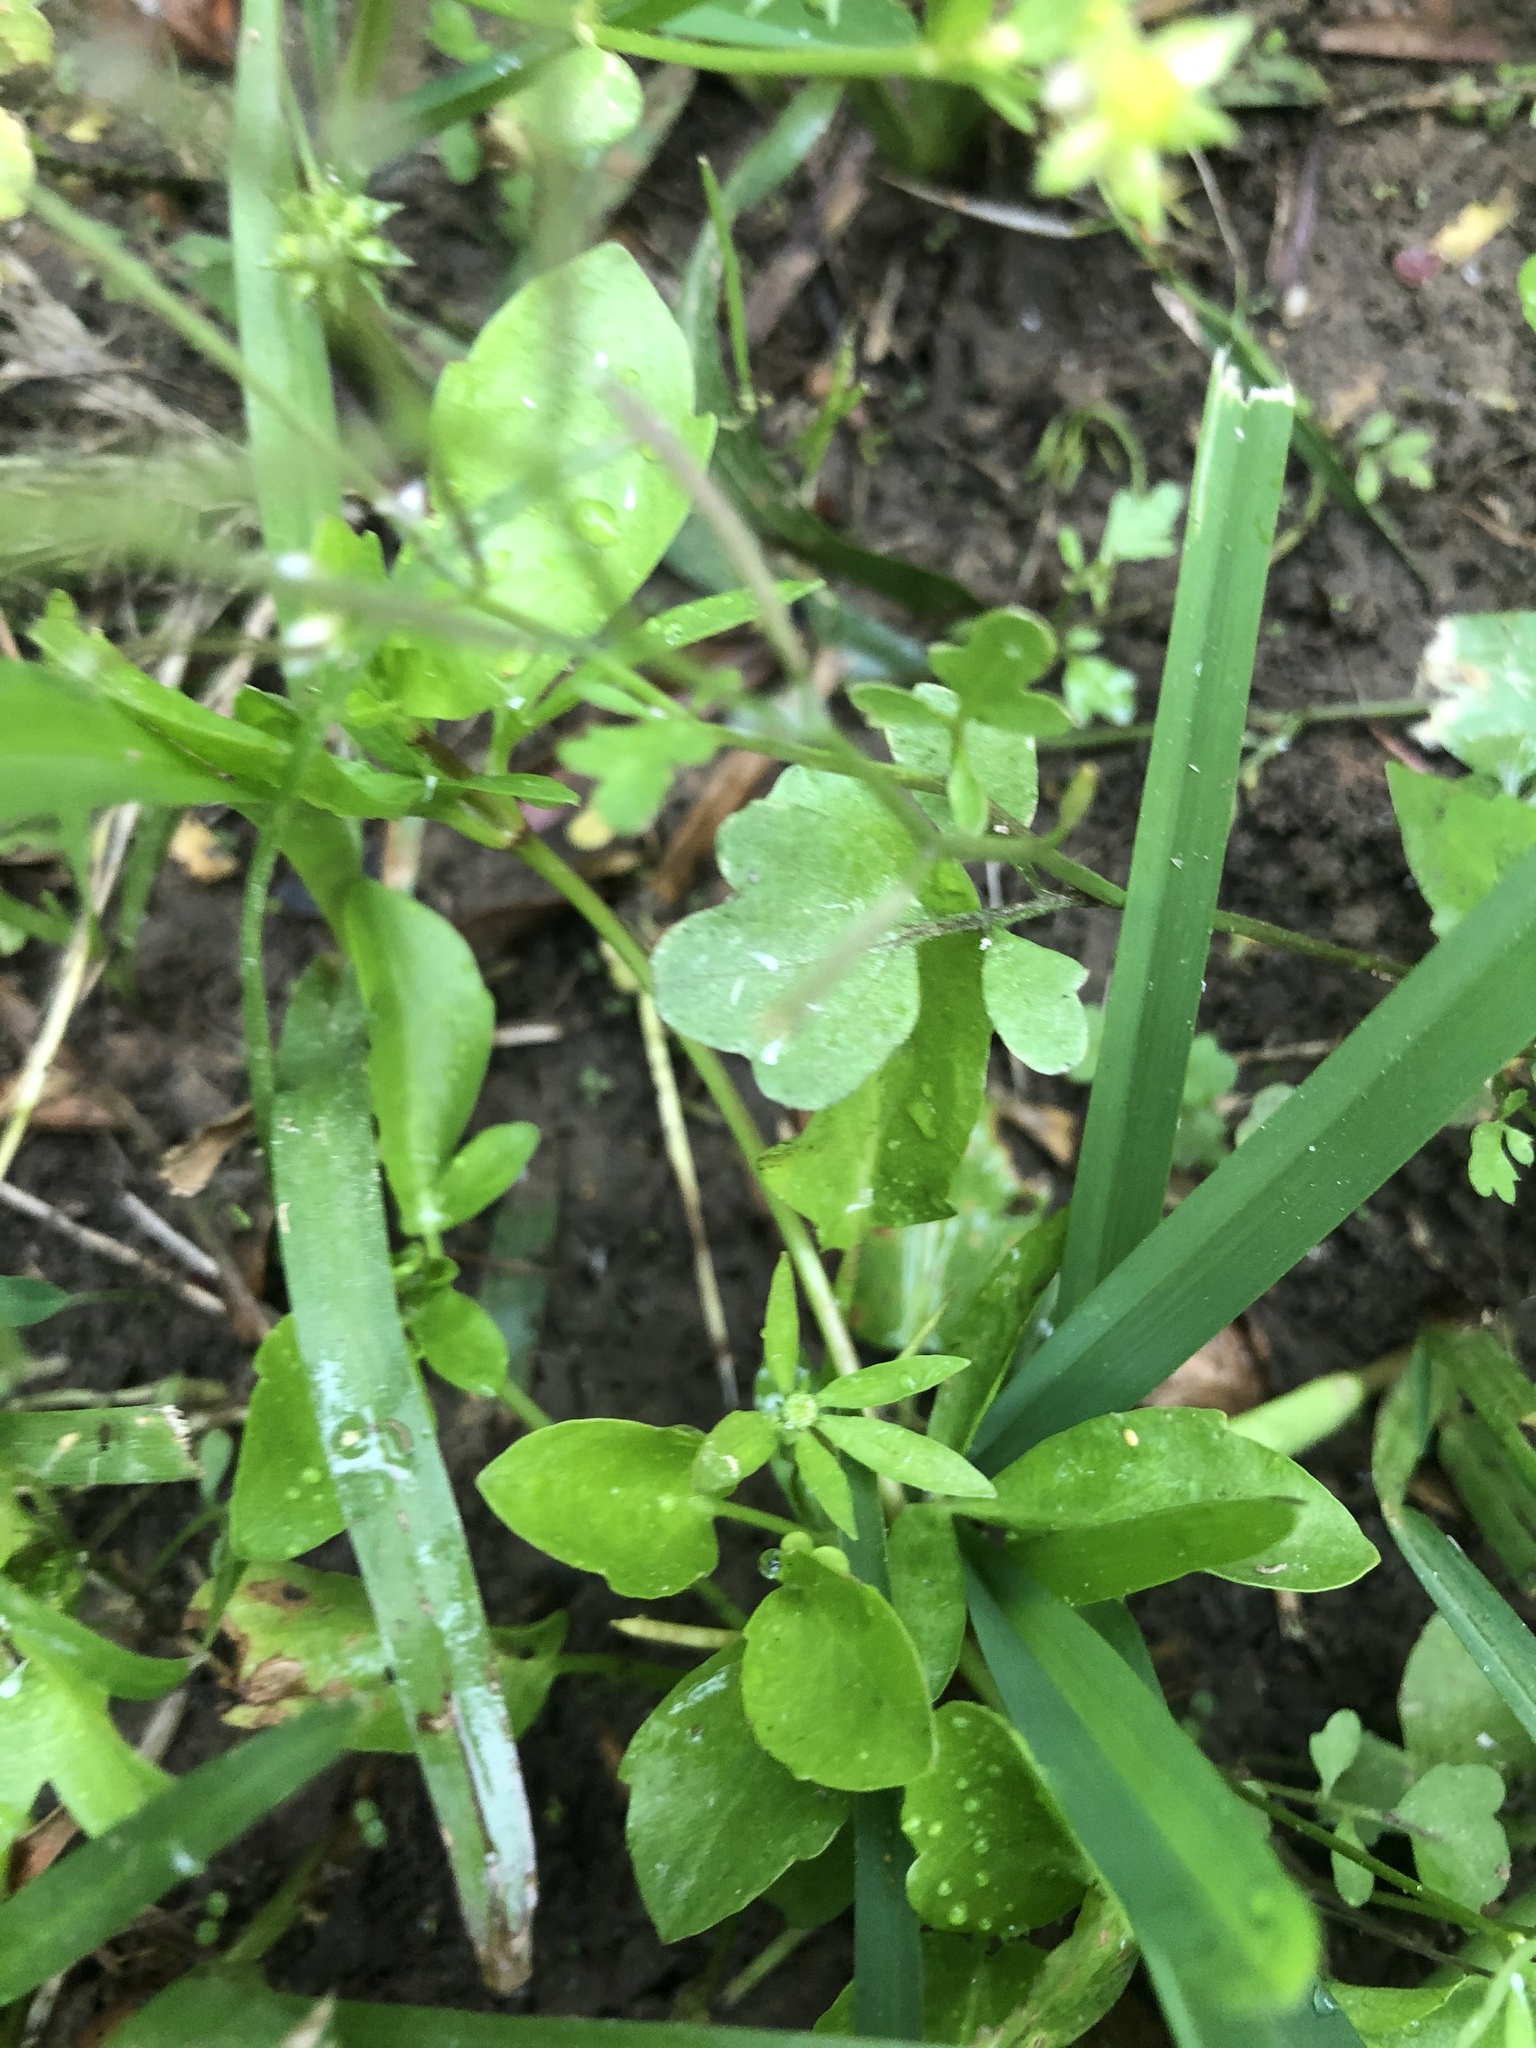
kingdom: Plantae
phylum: Tracheophyta
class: Magnoliopsida
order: Apiales
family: Apiaceae
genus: Eryngium
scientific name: Eryngium prostratum
